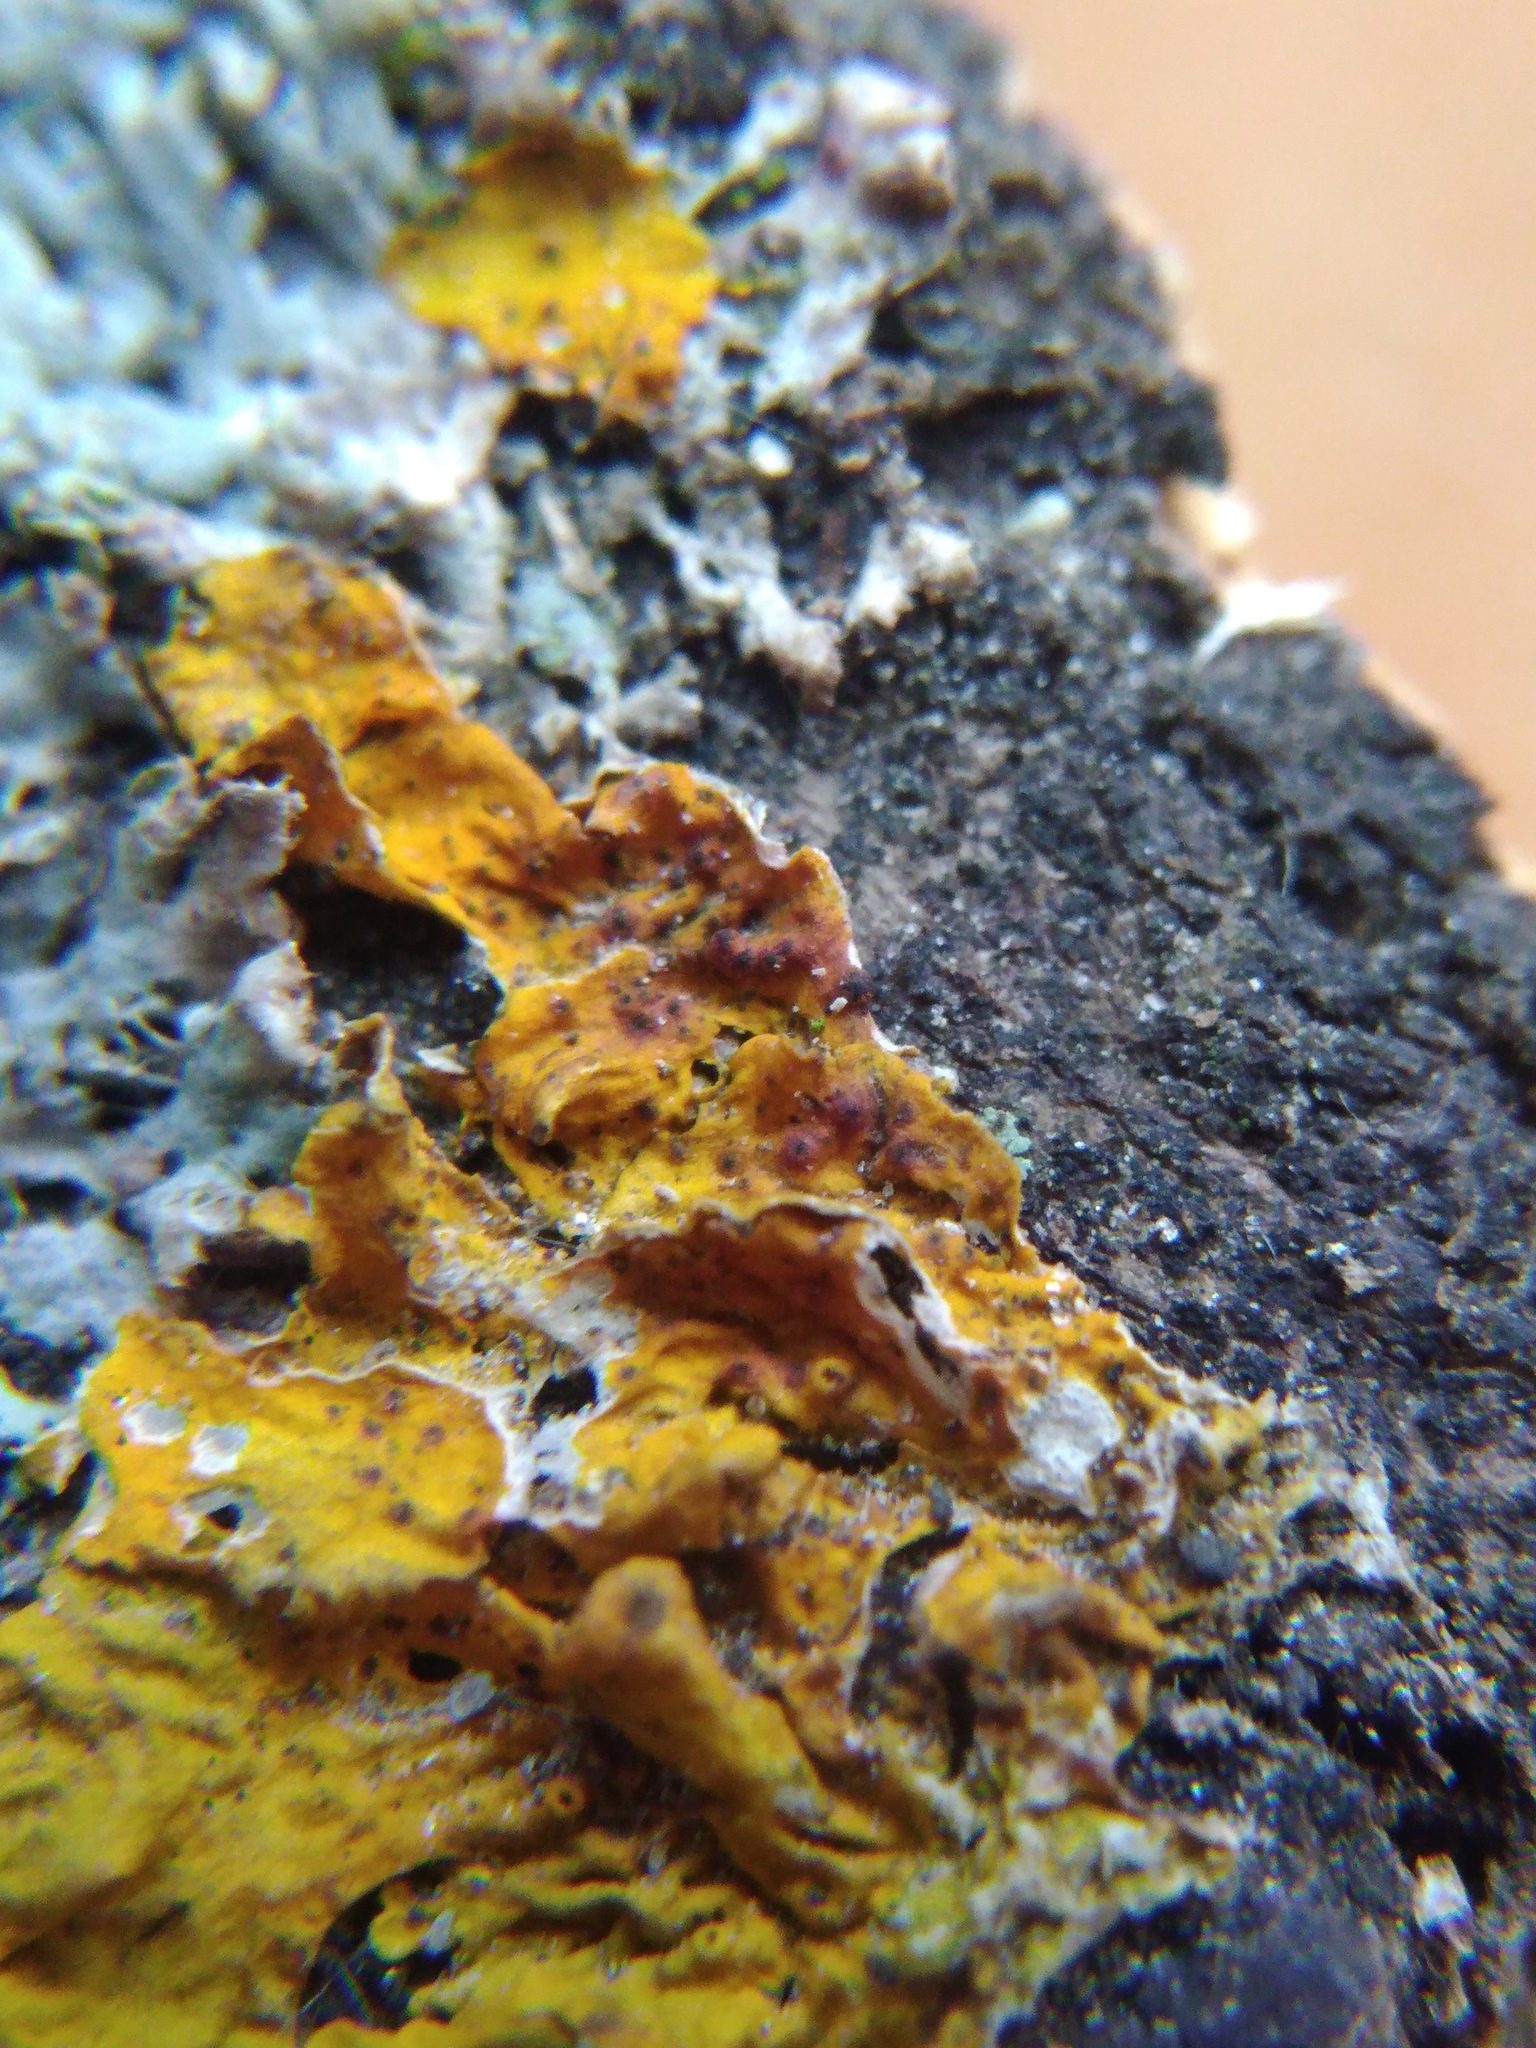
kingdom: Fungi
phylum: Ascomycota
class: Dothideomycetes
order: Pleosporales
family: Phaeosphaeriaceae
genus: Didymocyrtis
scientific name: Didymocyrtis slaptonensis
